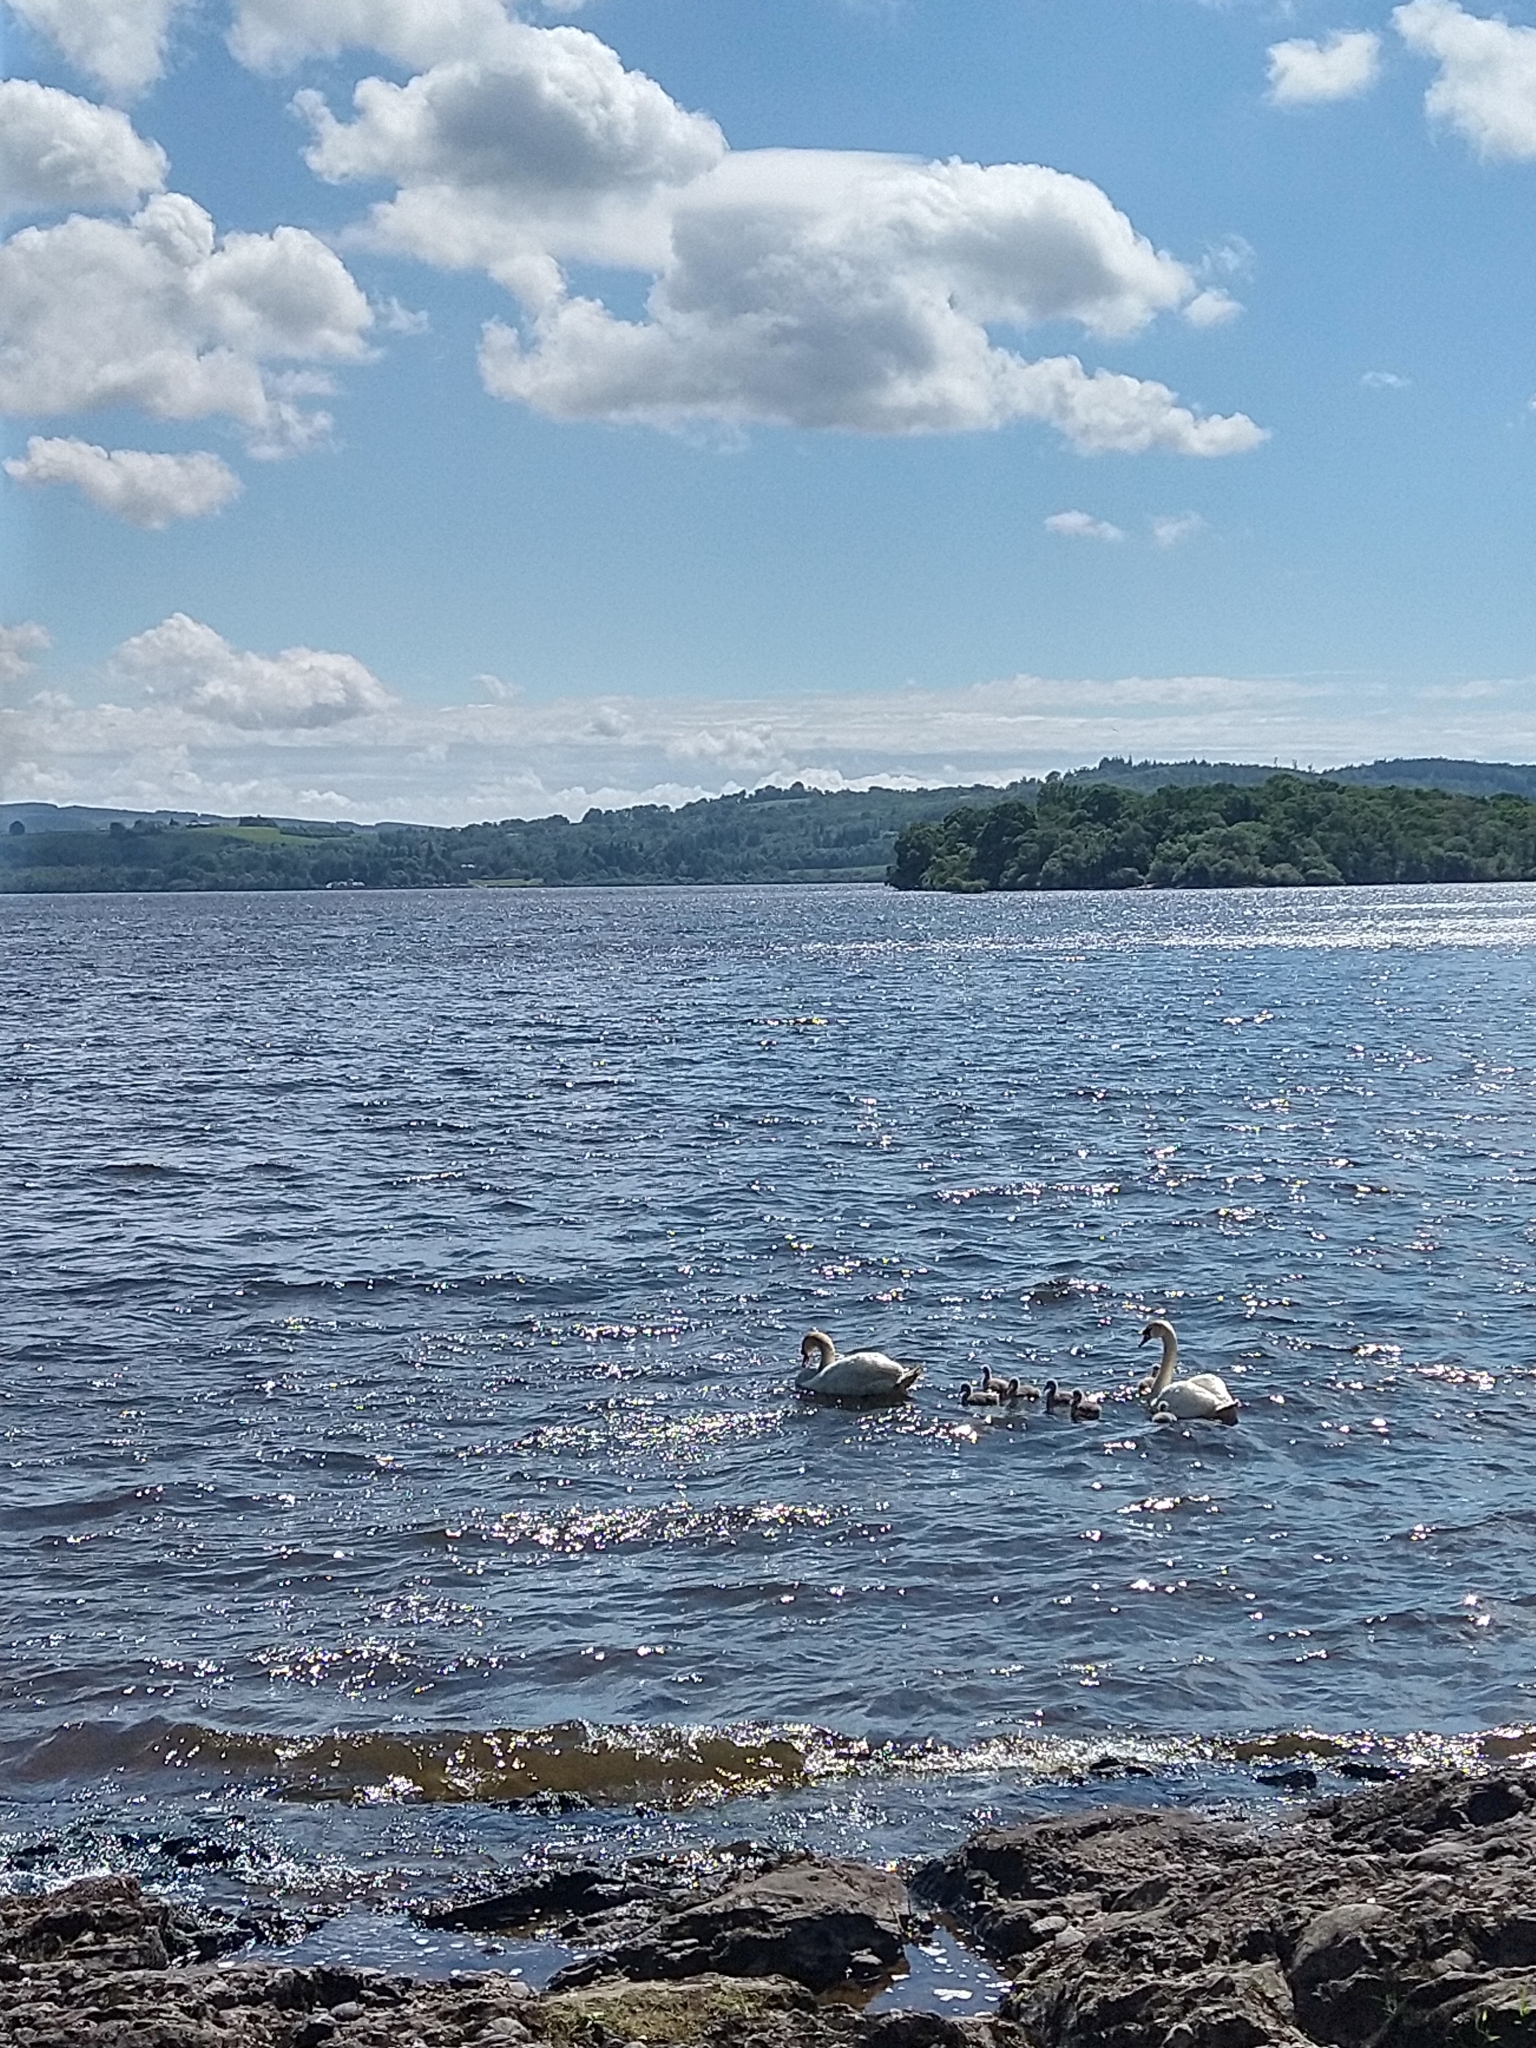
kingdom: Animalia
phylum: Chordata
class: Aves
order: Anseriformes
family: Anatidae
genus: Cygnus
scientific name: Cygnus olor
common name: Mute swan
